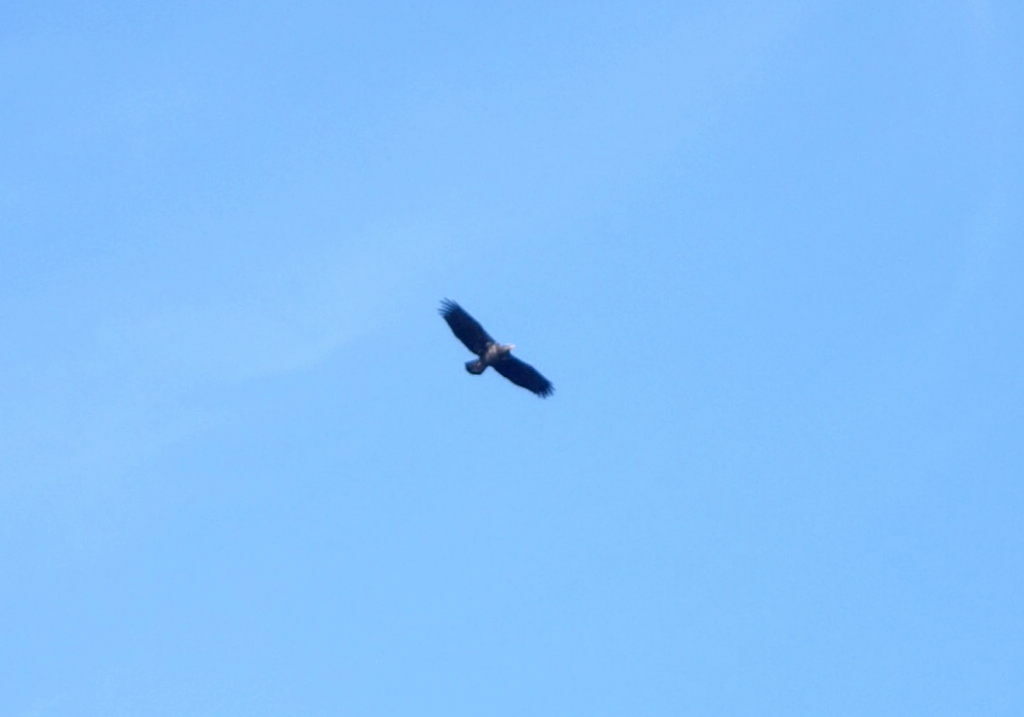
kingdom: Animalia
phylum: Chordata
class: Aves
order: Accipitriformes
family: Accipitridae
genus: Haliaeetus
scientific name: Haliaeetus leucocephalus
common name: Bald eagle
